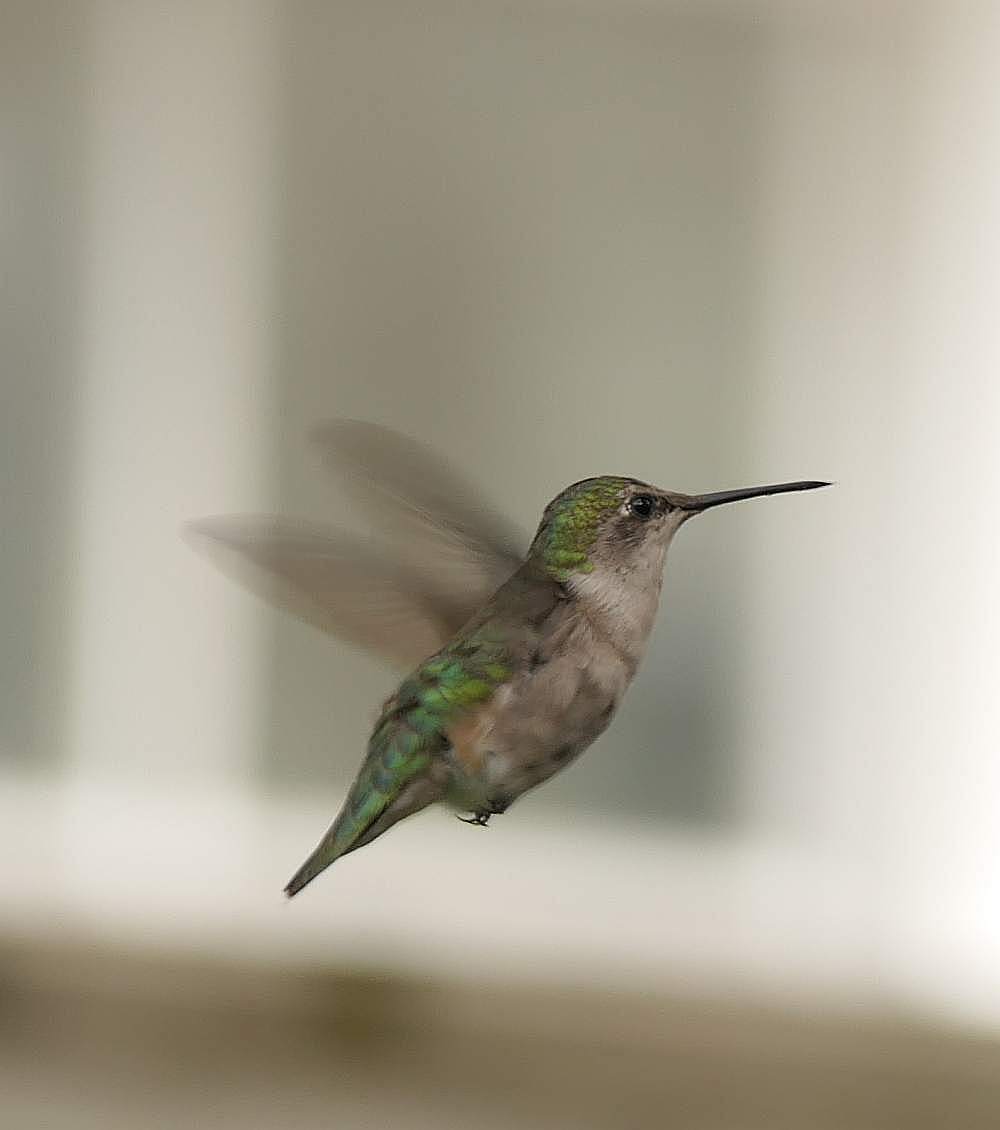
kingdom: Animalia
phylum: Chordata
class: Aves
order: Apodiformes
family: Trochilidae
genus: Archilochus
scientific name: Archilochus colubris
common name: Ruby-throated hummingbird
